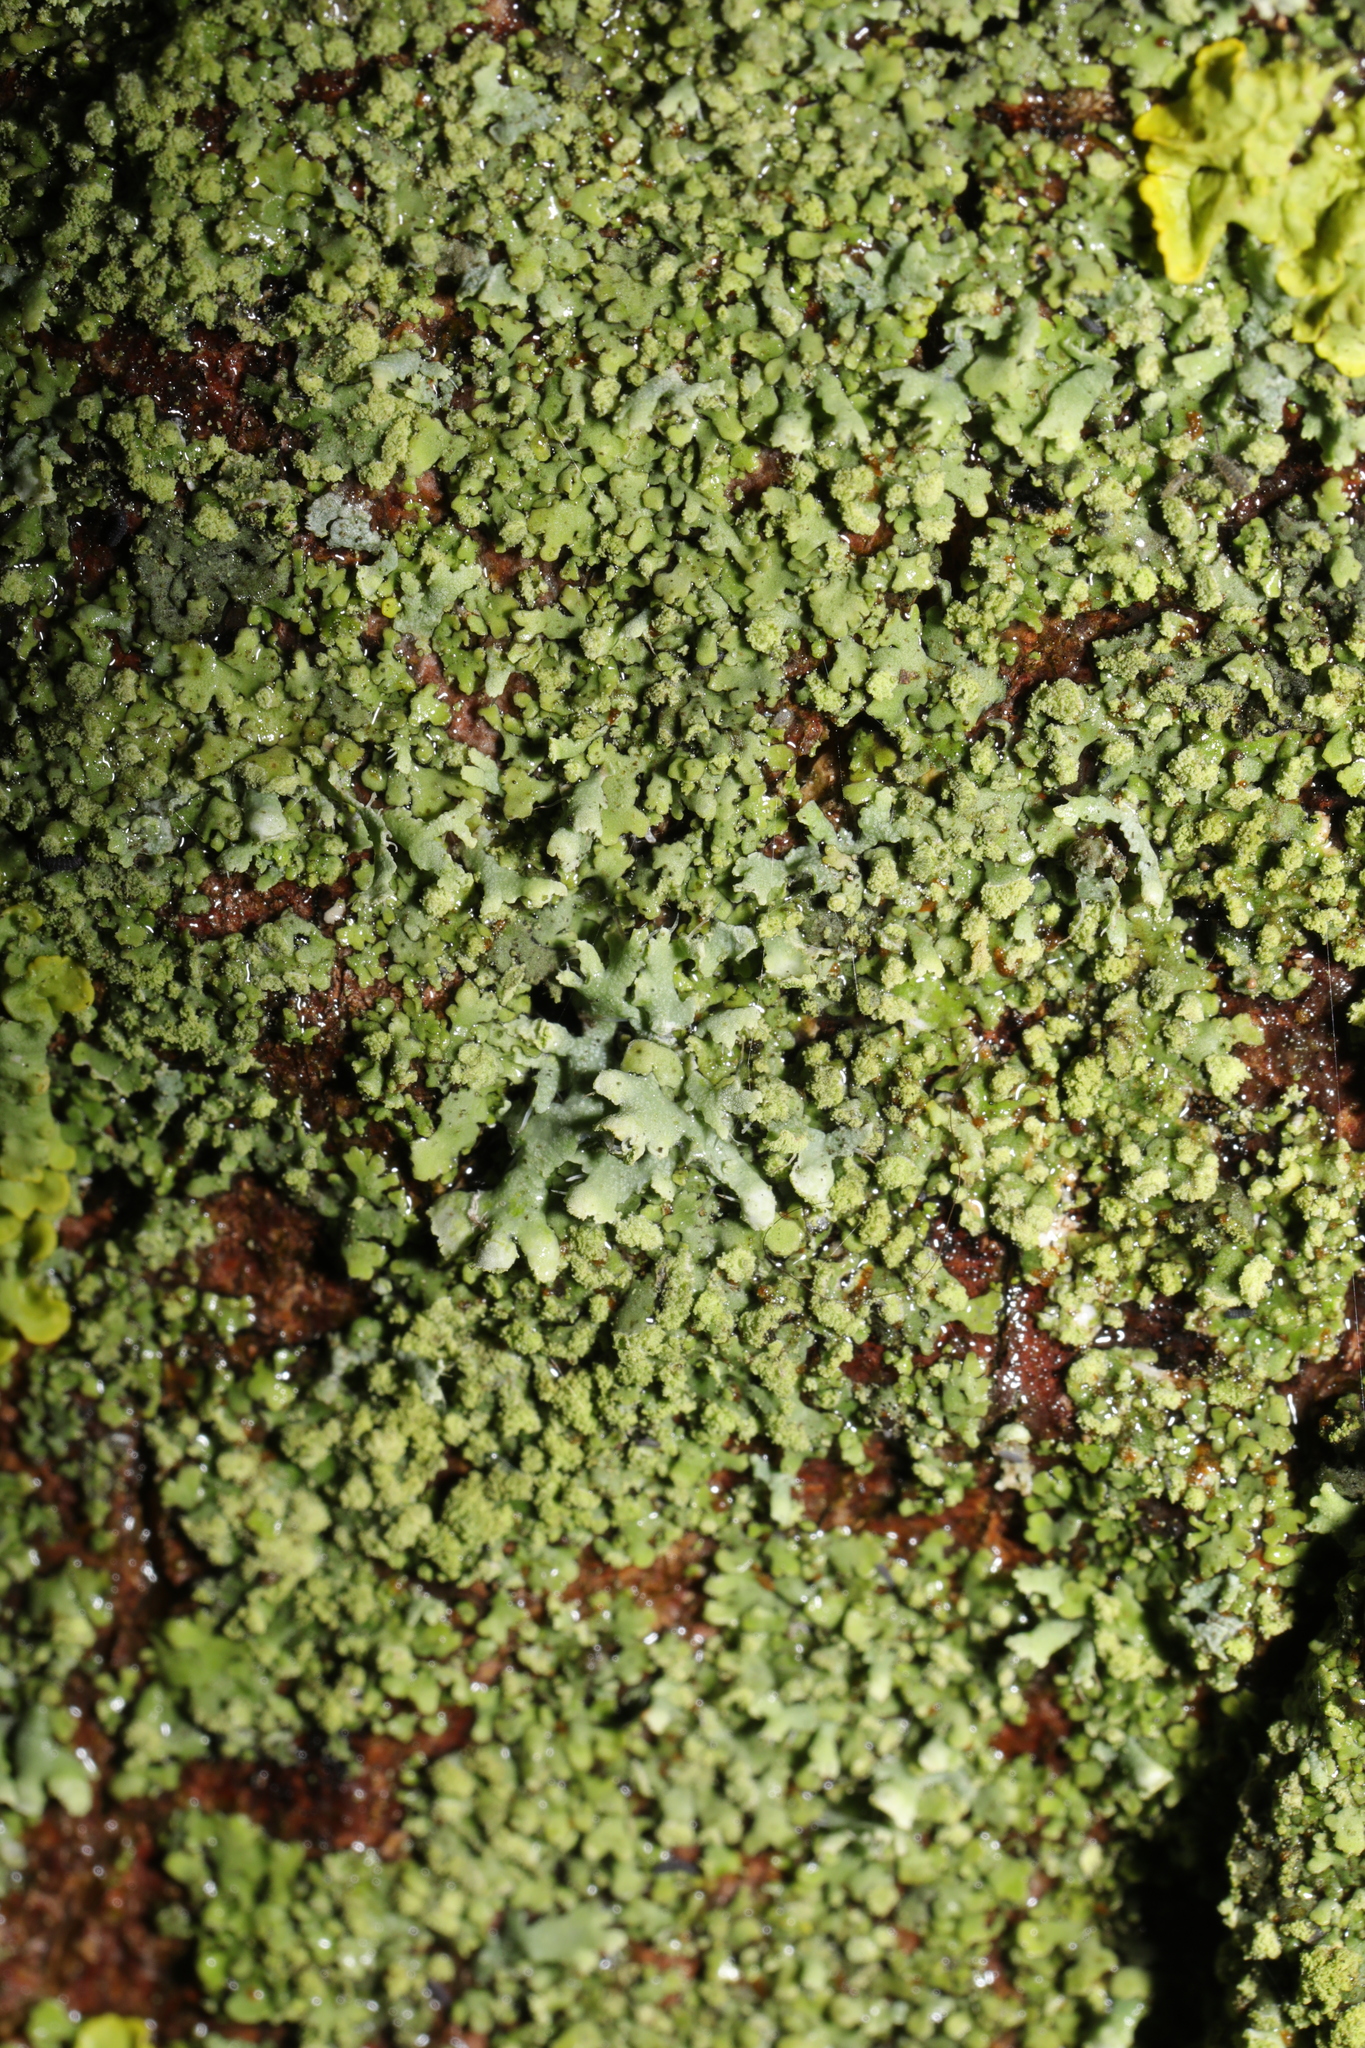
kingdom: Fungi
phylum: Ascomycota
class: Lecanoromycetes
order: Caliciales
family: Physciaceae
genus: Physcia
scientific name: Physcia adscendens
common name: Hooded rosette lichen
